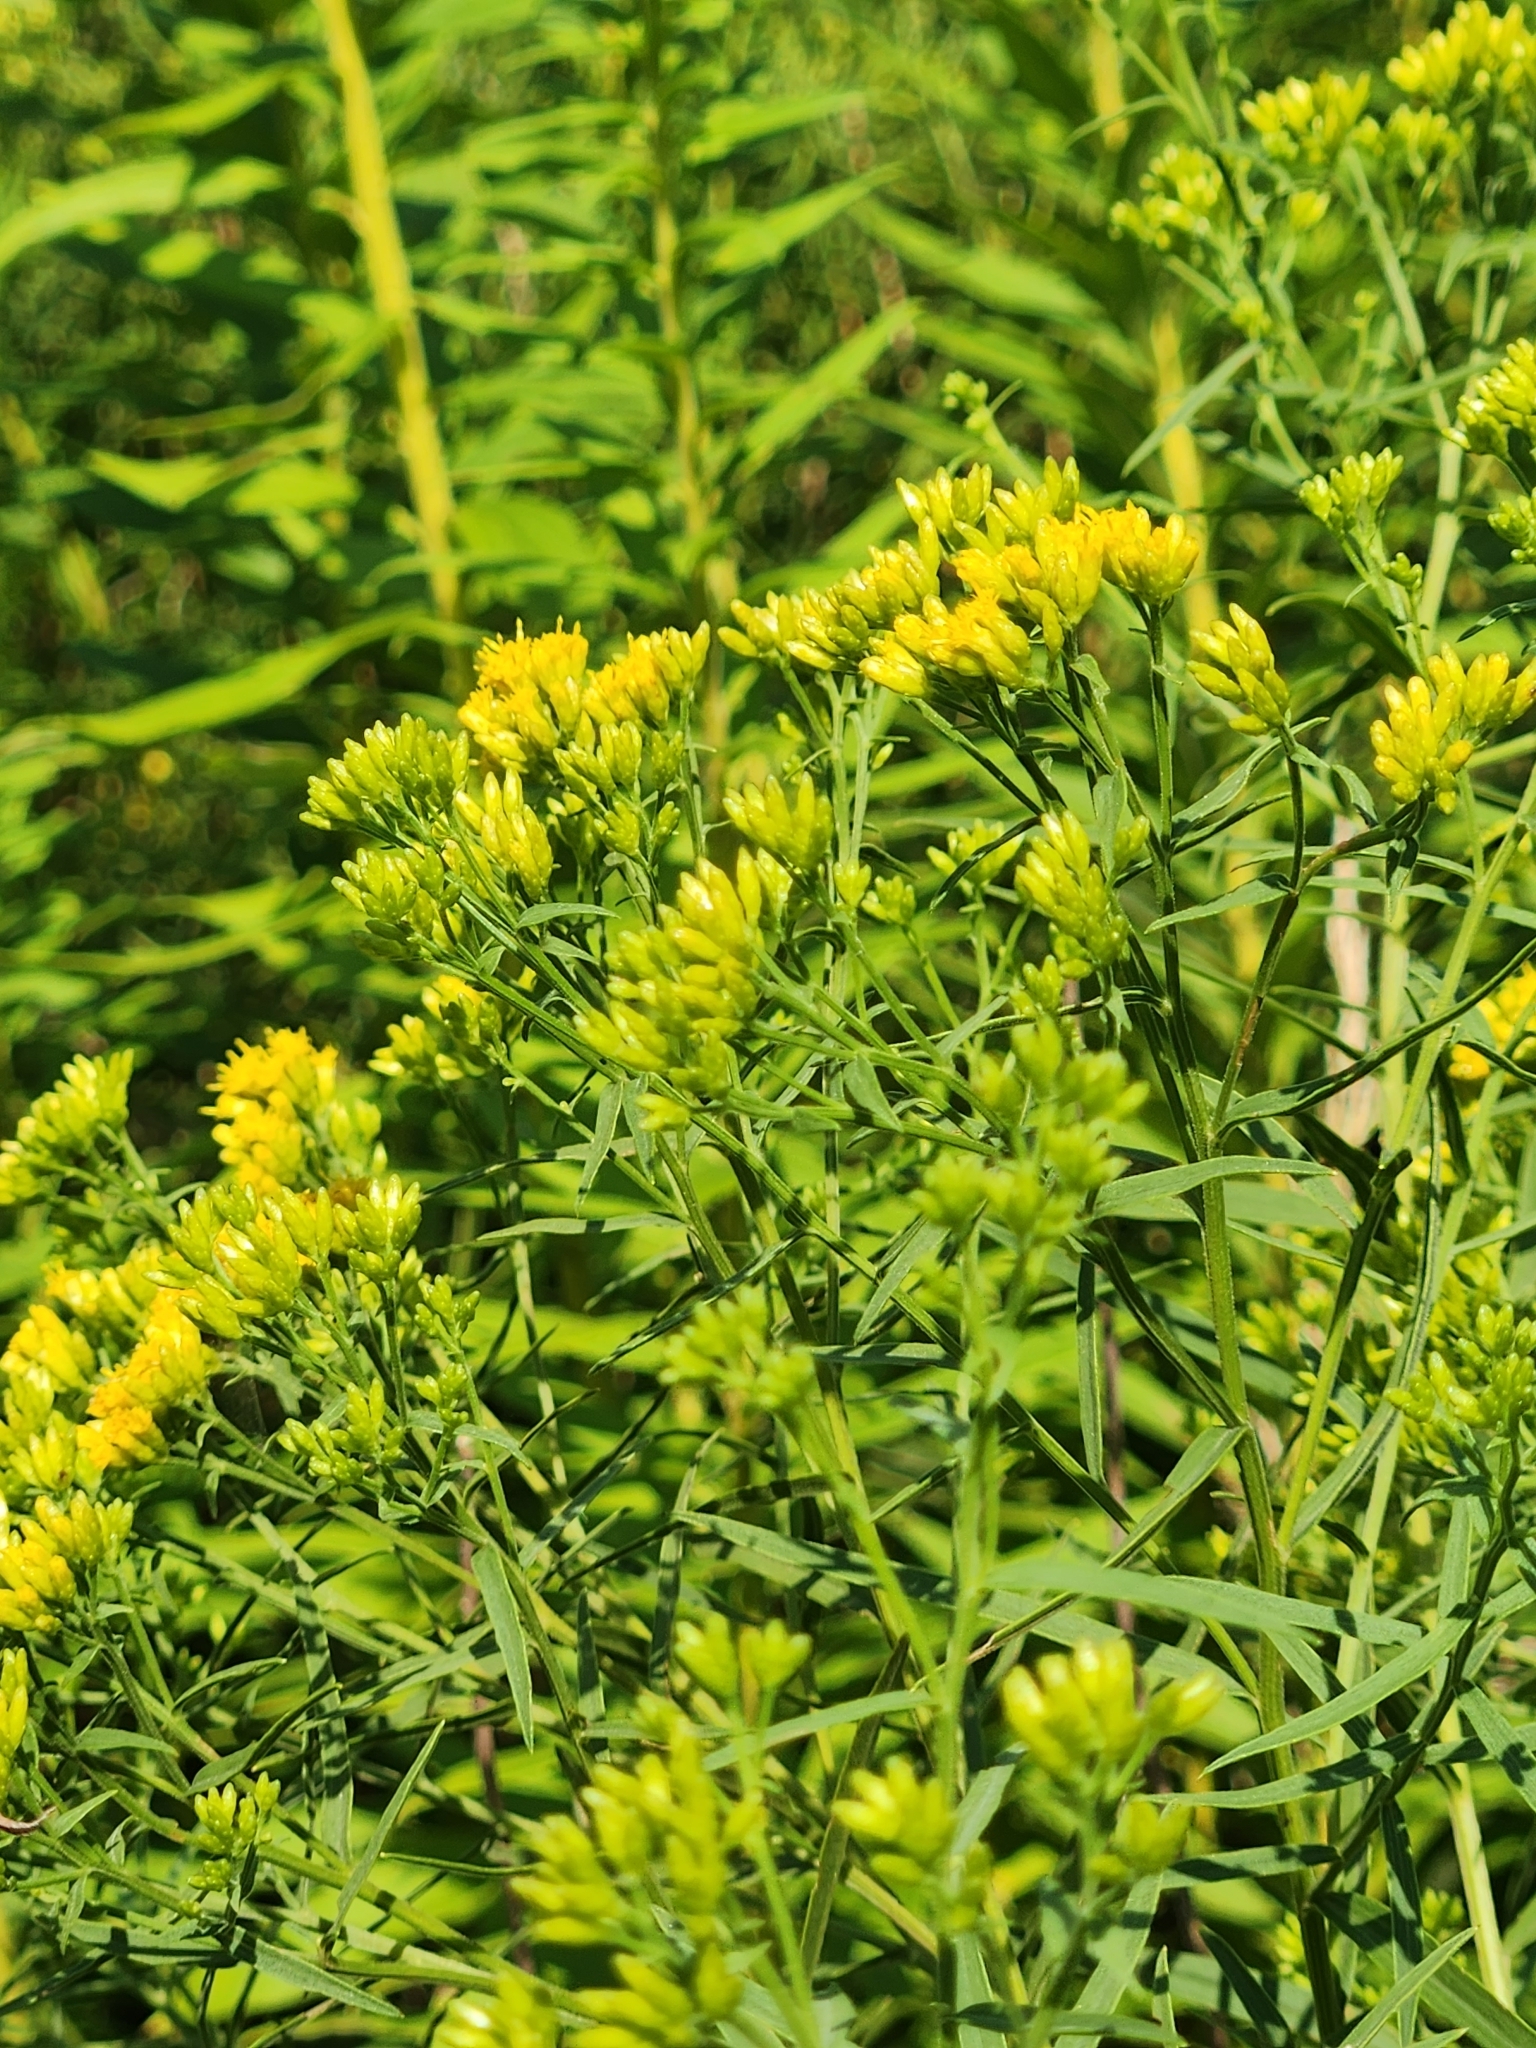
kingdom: Plantae
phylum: Tracheophyta
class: Magnoliopsida
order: Asterales
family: Asteraceae
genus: Euthamia
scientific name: Euthamia graminifolia
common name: Common goldentop
